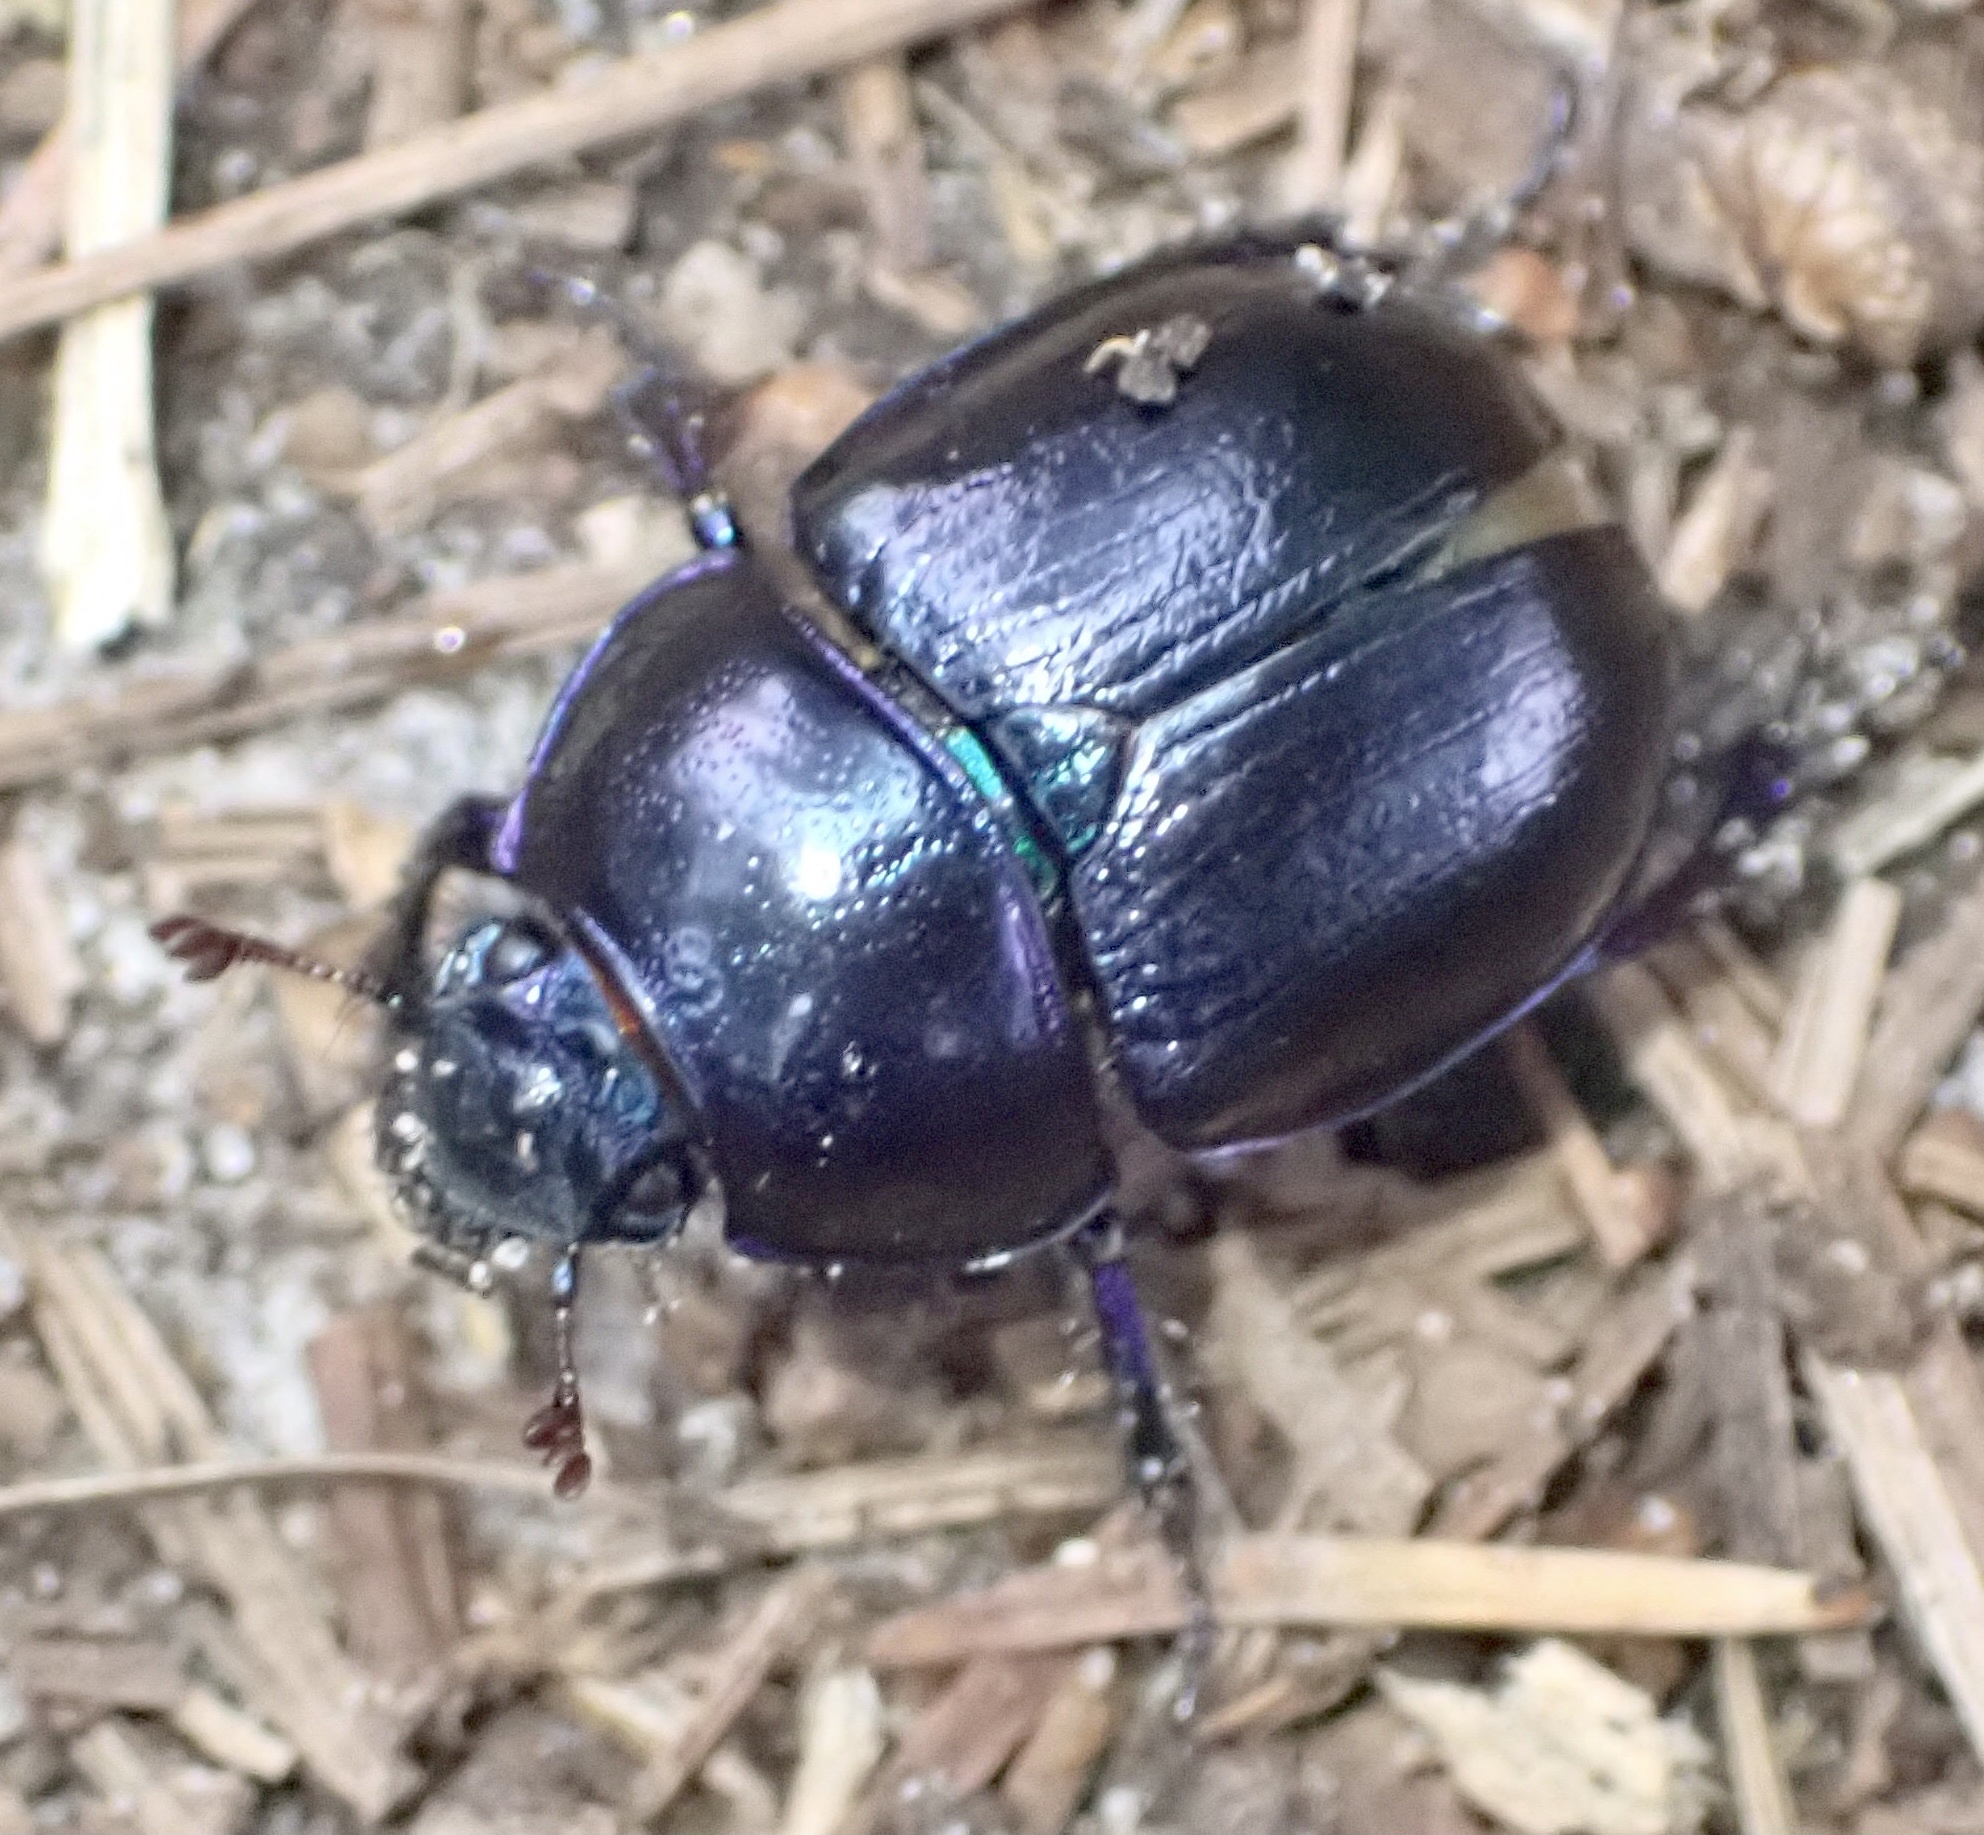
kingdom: Animalia
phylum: Arthropoda
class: Insecta
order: Coleoptera
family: Geotrupidae
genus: Anoplotrupes
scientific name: Anoplotrupes stercorosus
